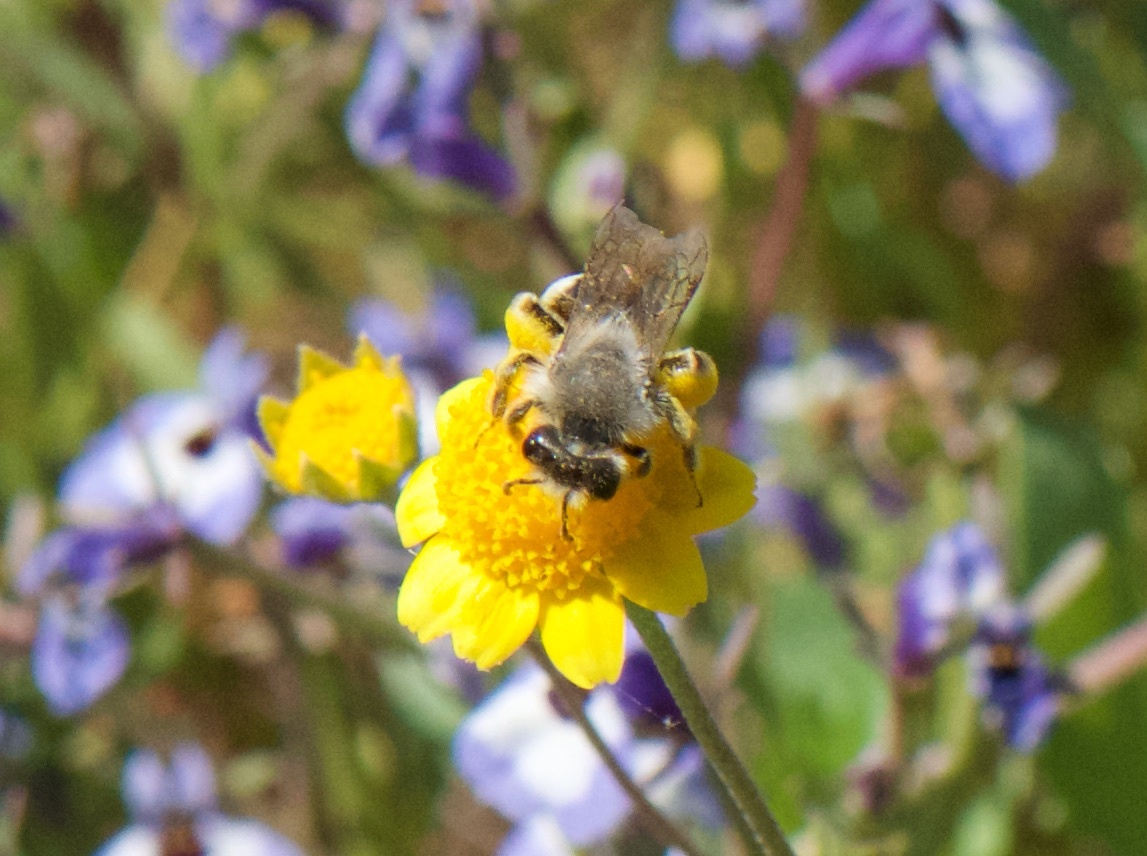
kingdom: Animalia
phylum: Arthropoda
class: Insecta
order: Hymenoptera
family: Apidae
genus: Apis
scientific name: Apis mellifera
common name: Honey bee
